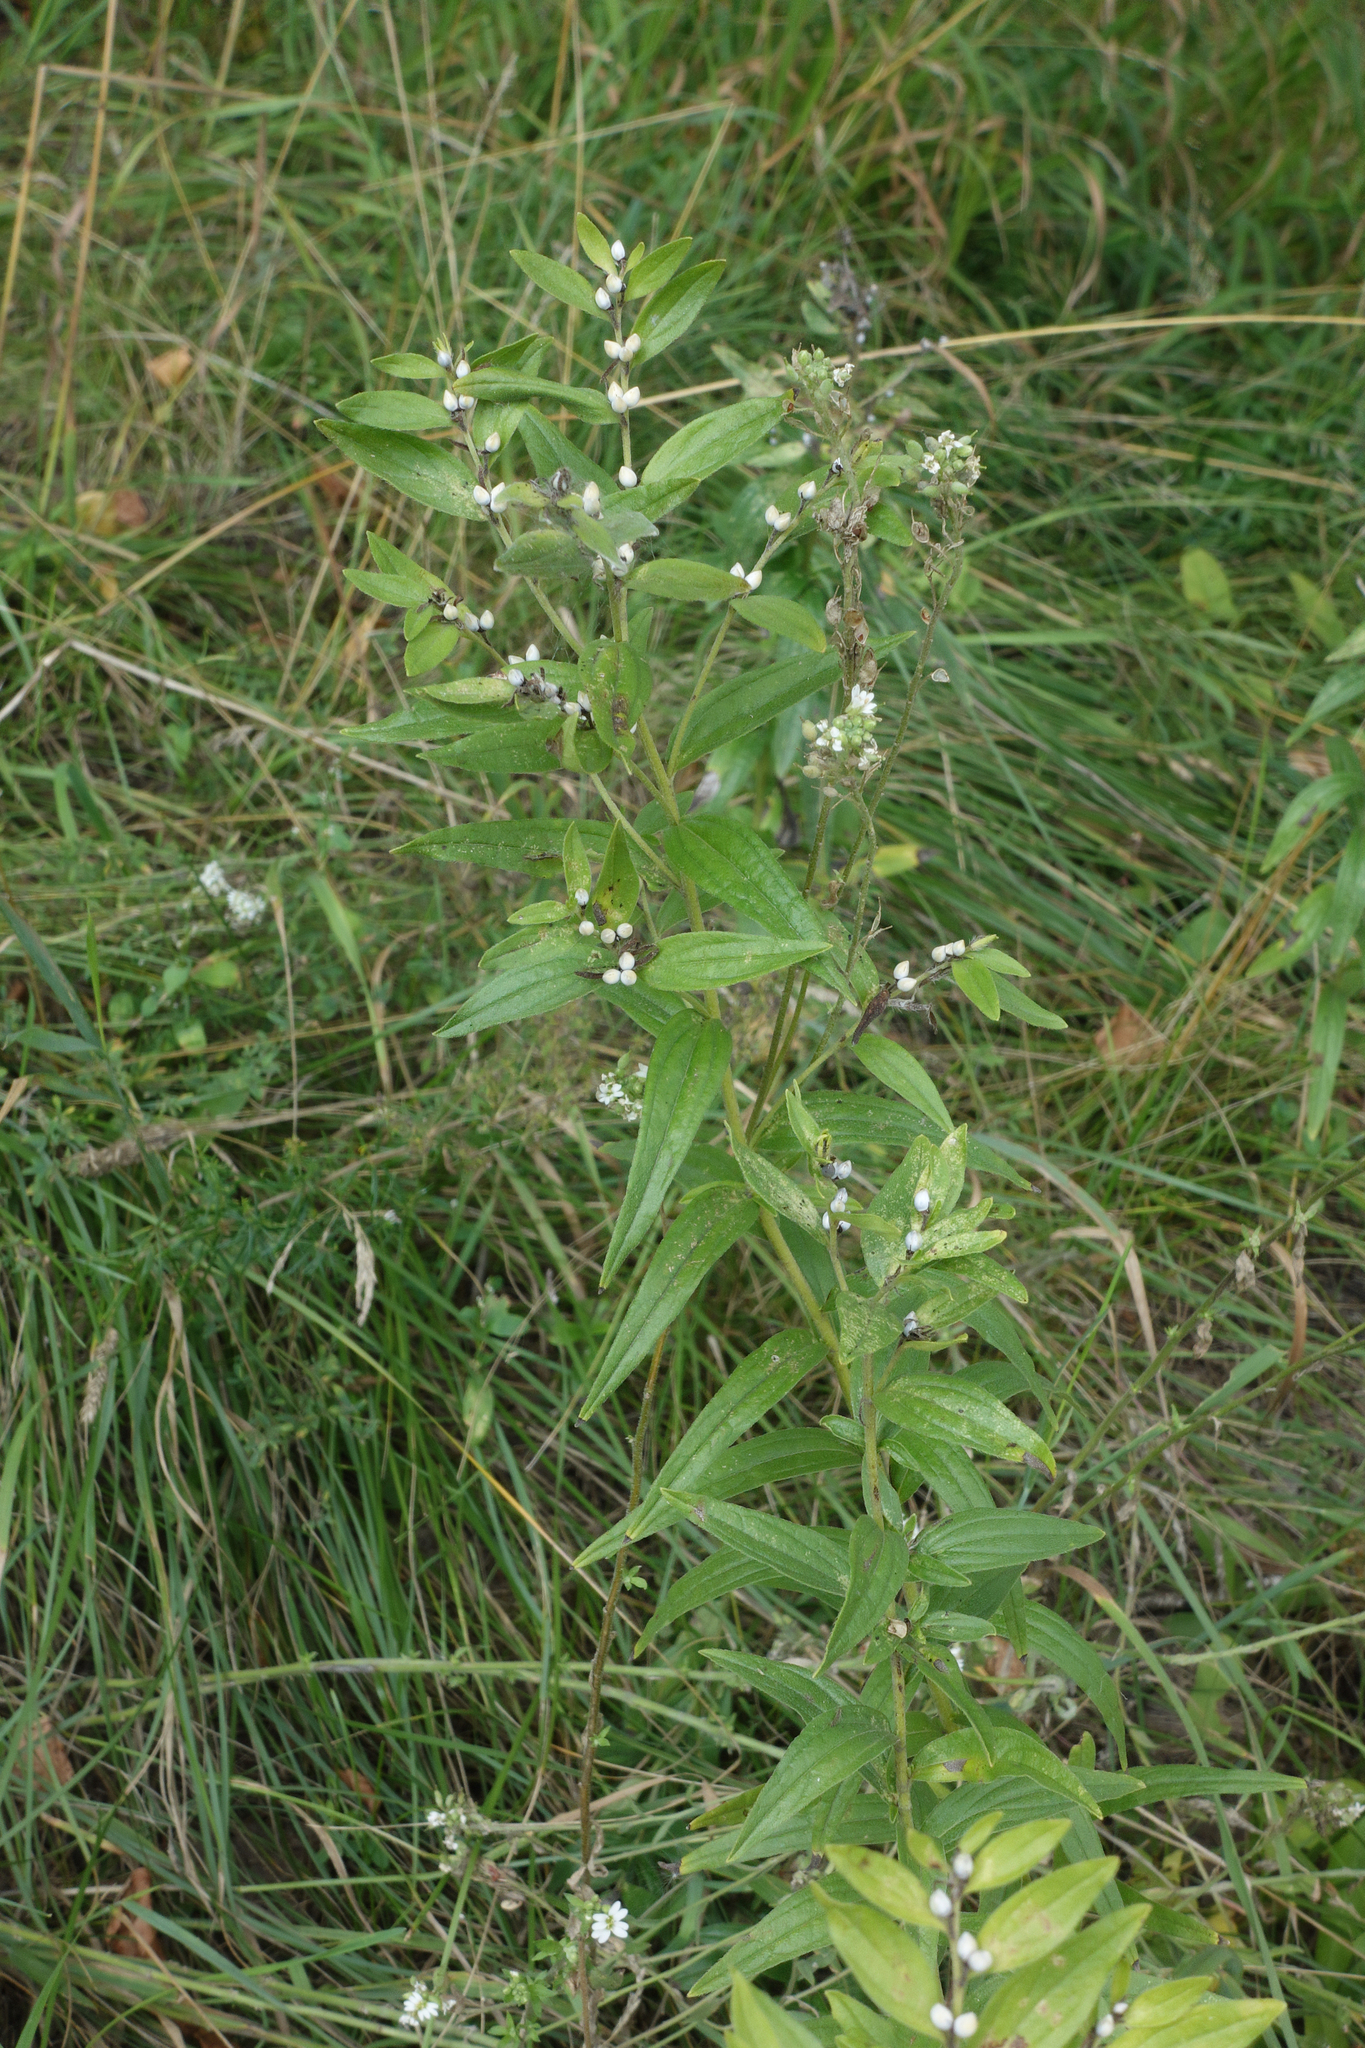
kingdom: Plantae
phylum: Tracheophyta
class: Magnoliopsida
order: Boraginales
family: Boraginaceae
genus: Lithospermum
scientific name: Lithospermum officinale
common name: Common gromwell
